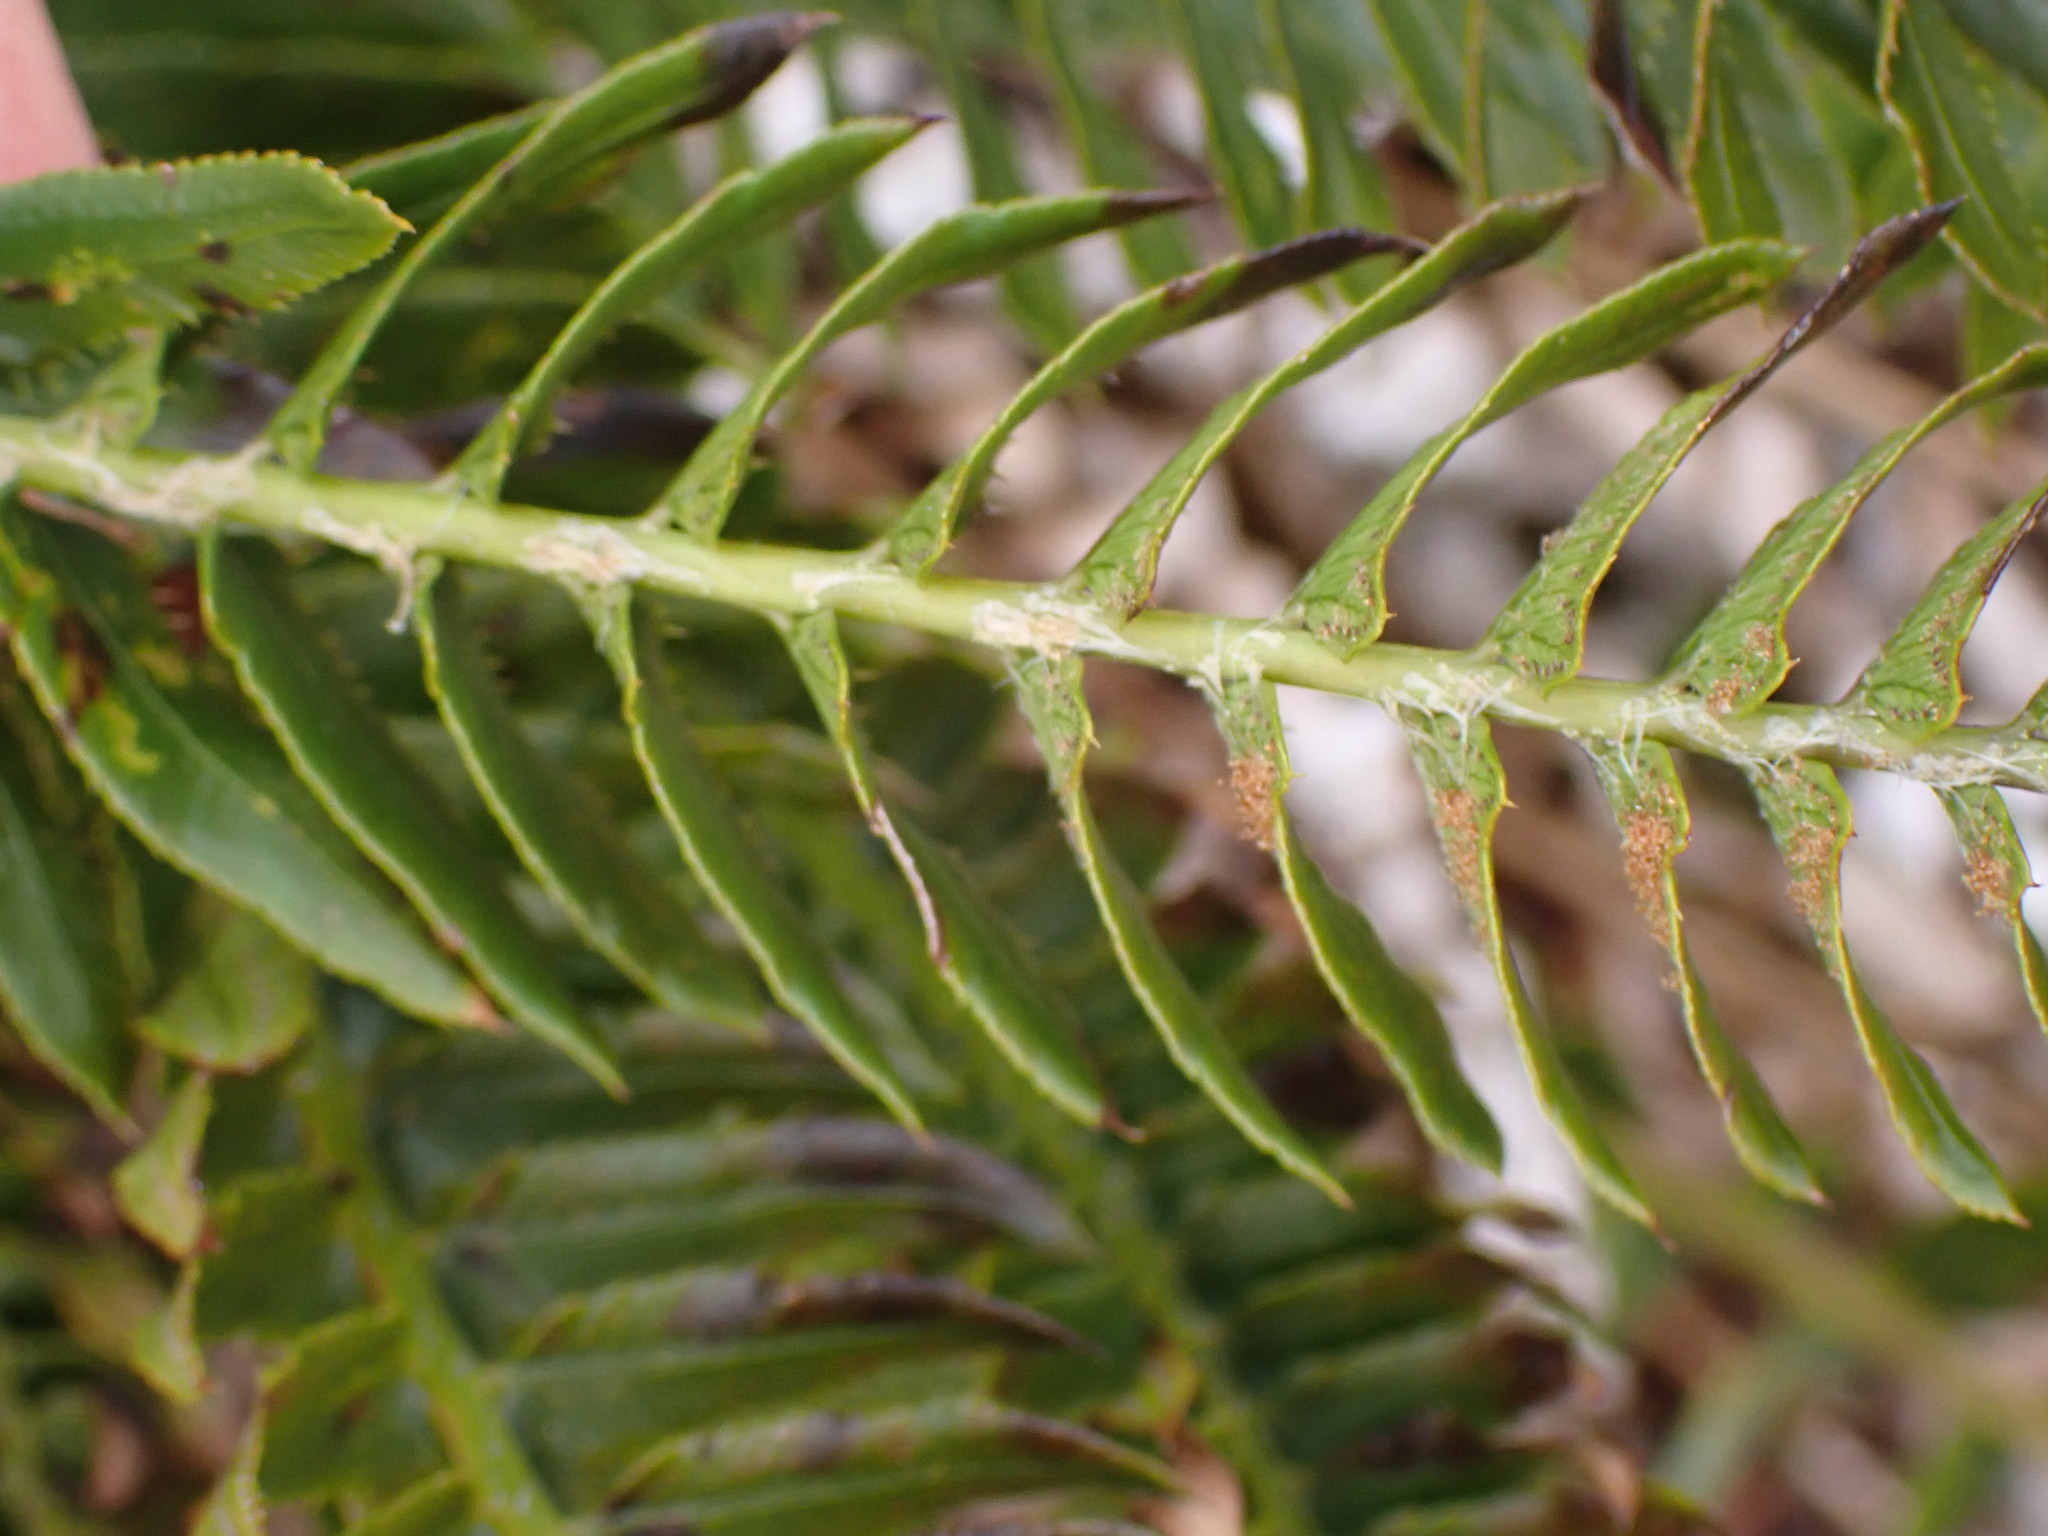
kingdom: Plantae
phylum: Tracheophyta
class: Polypodiopsida
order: Polypodiales
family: Dryopteridaceae
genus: Polystichum
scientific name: Polystichum imbricans
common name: Dwarf western sword fern
